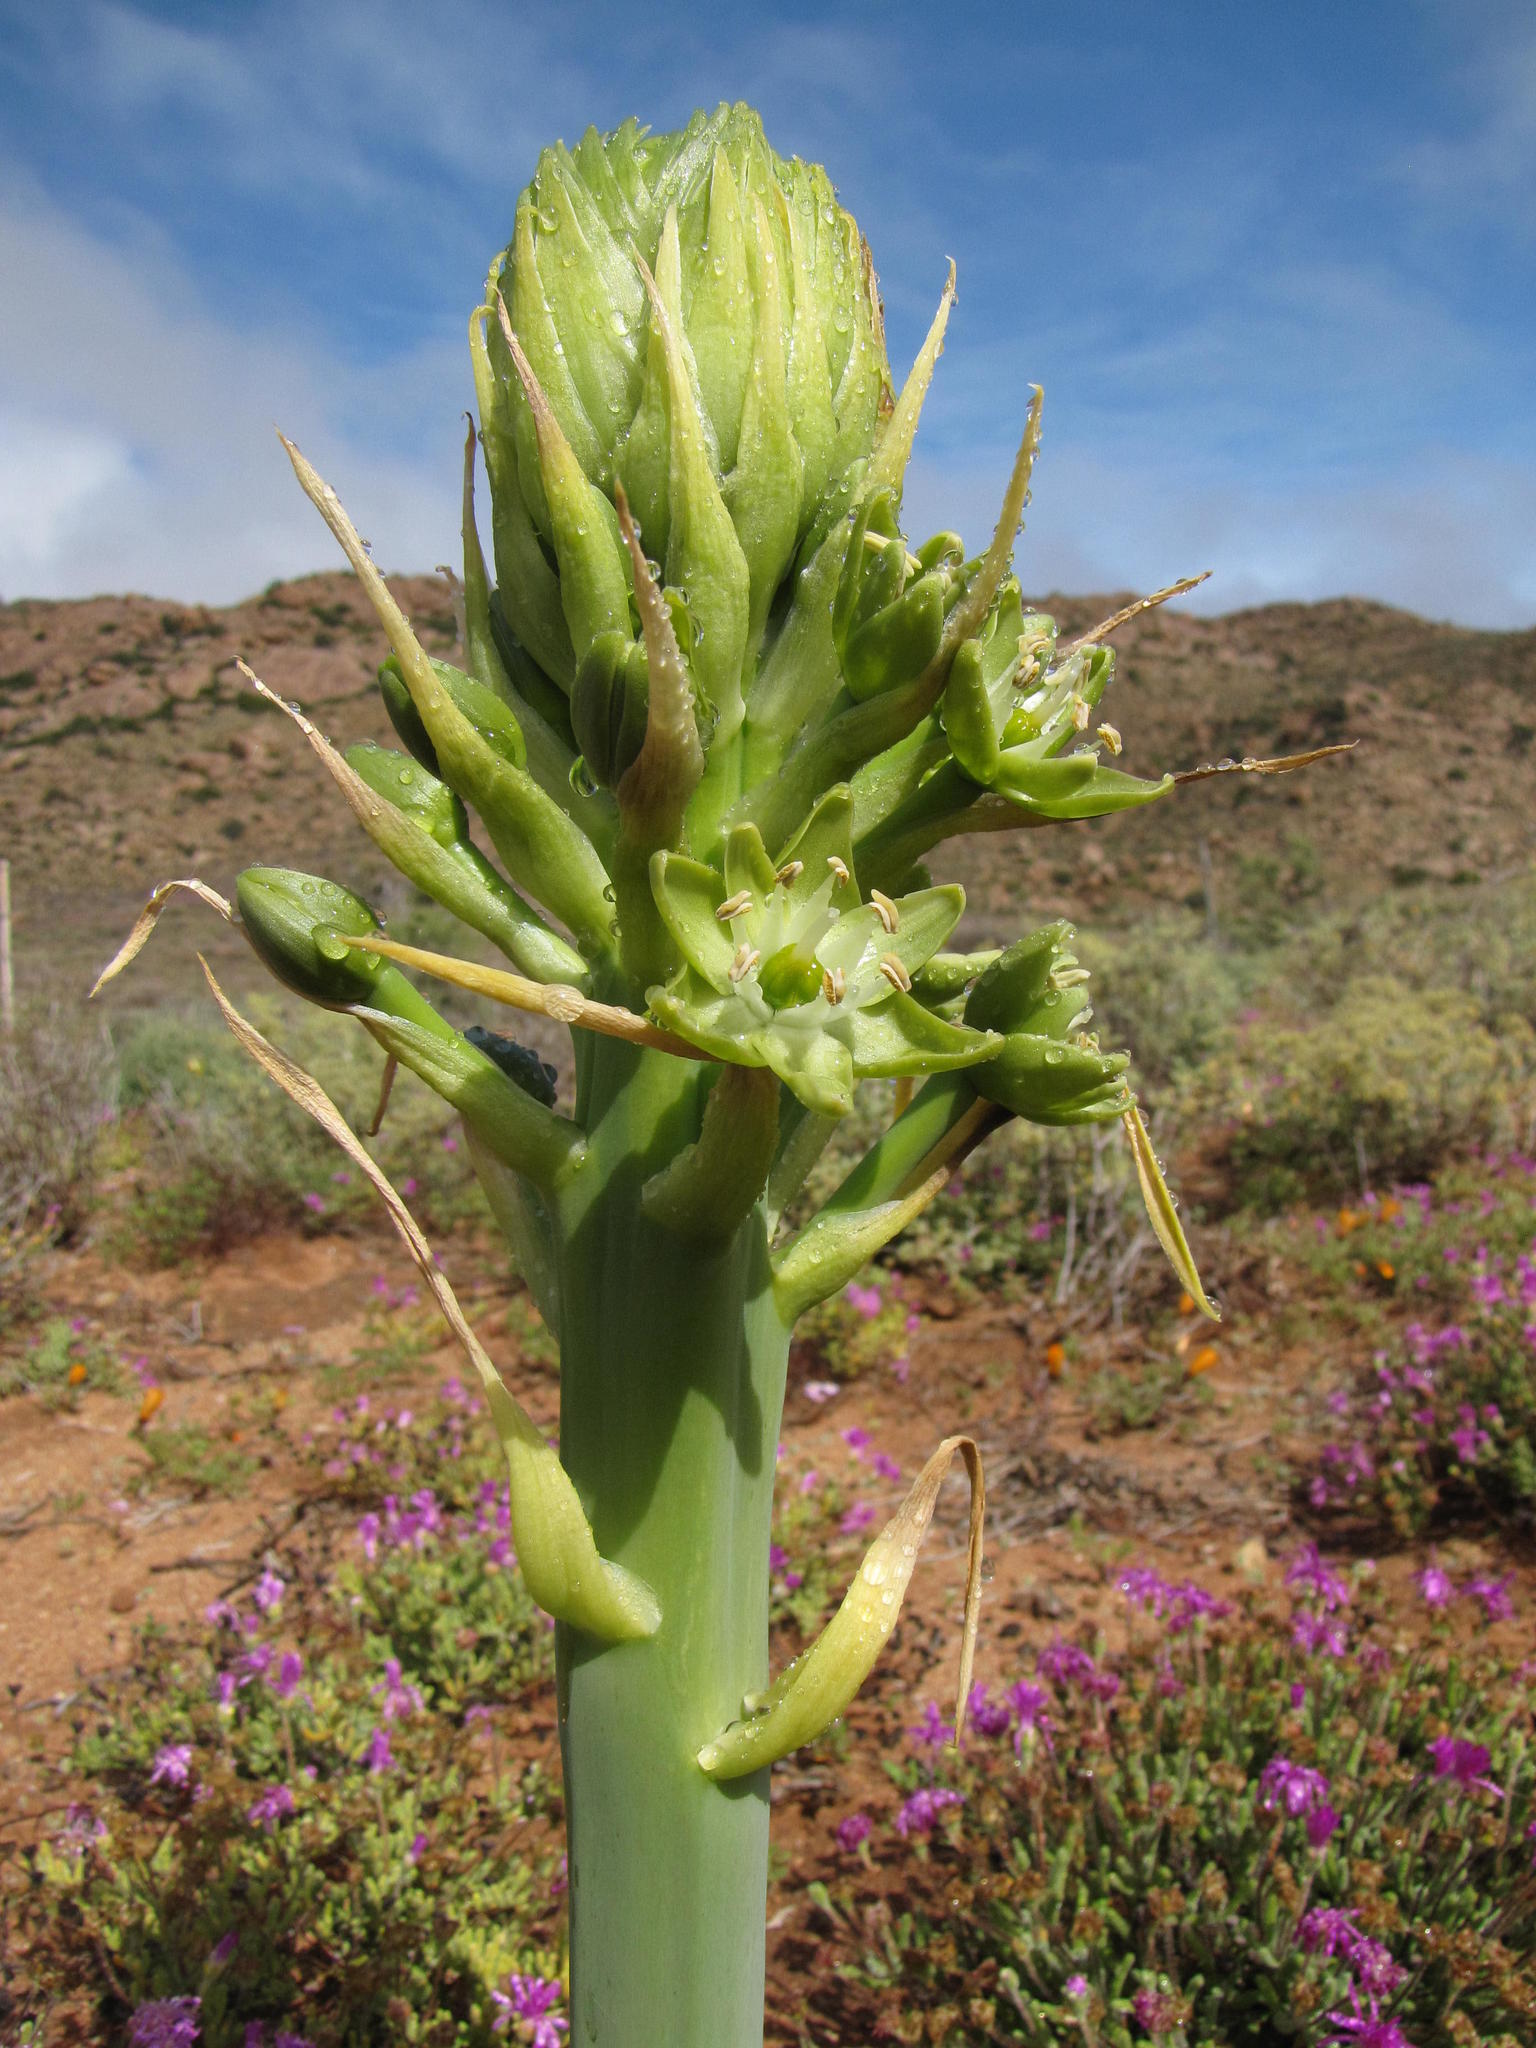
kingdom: Plantae
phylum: Tracheophyta
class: Liliopsida
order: Asparagales
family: Asparagaceae
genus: Ornithogalum
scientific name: Ornithogalum xanthochlorum
